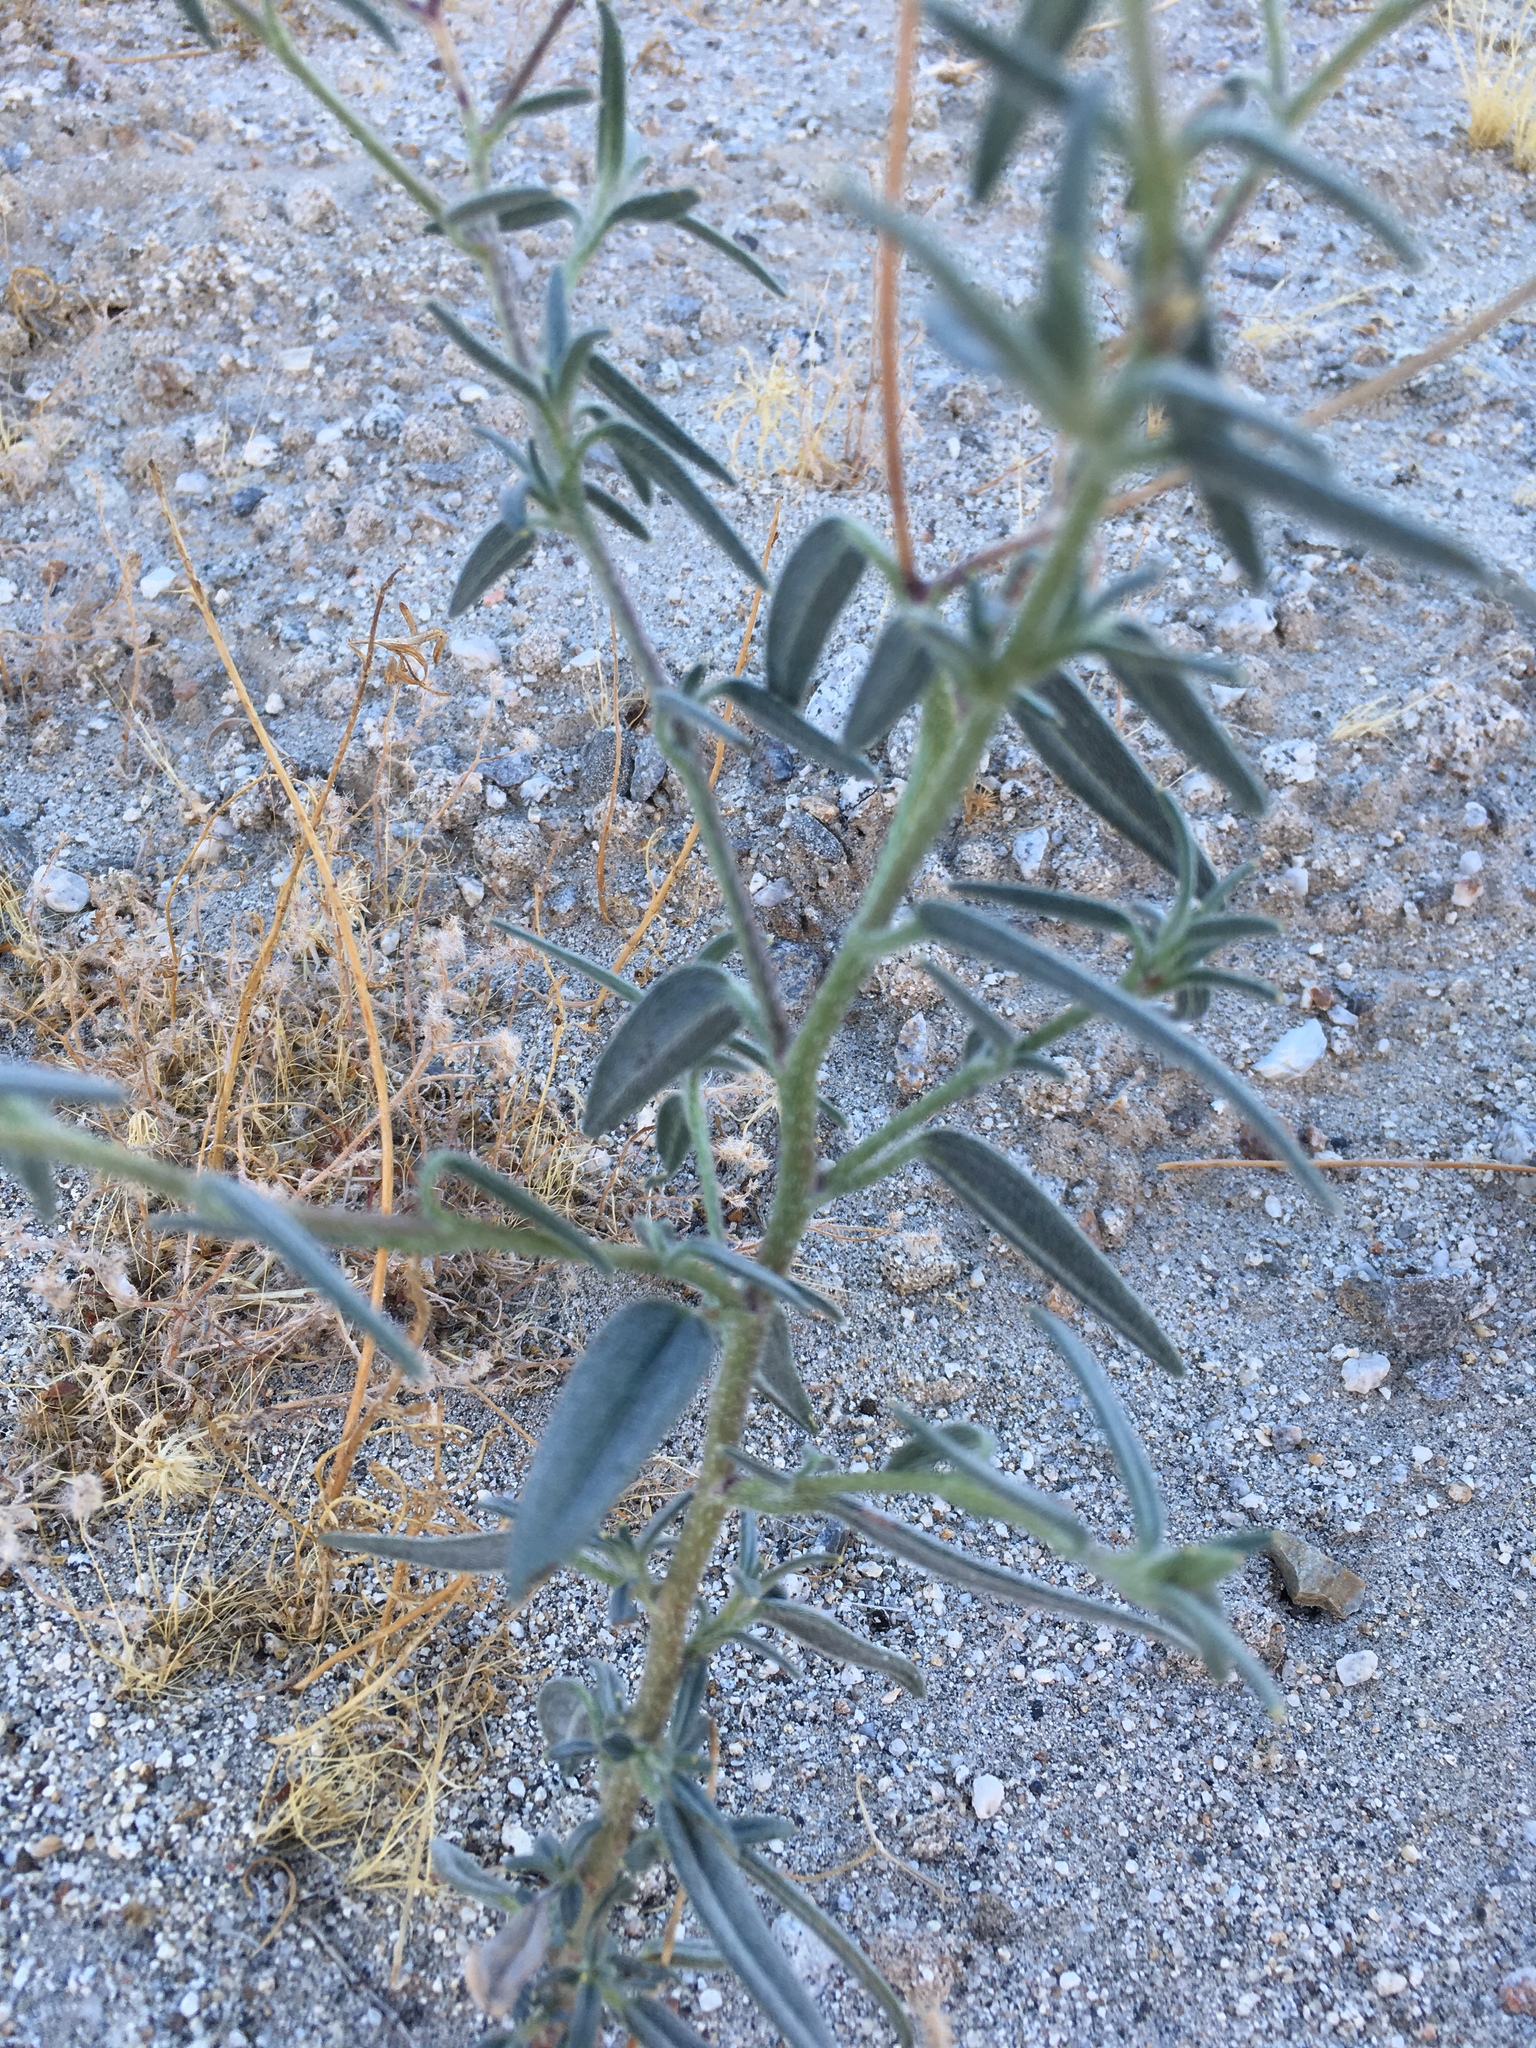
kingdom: Plantae
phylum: Tracheophyta
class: Magnoliopsida
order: Asterales
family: Asteraceae
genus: Palafoxia
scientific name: Palafoxia arida
